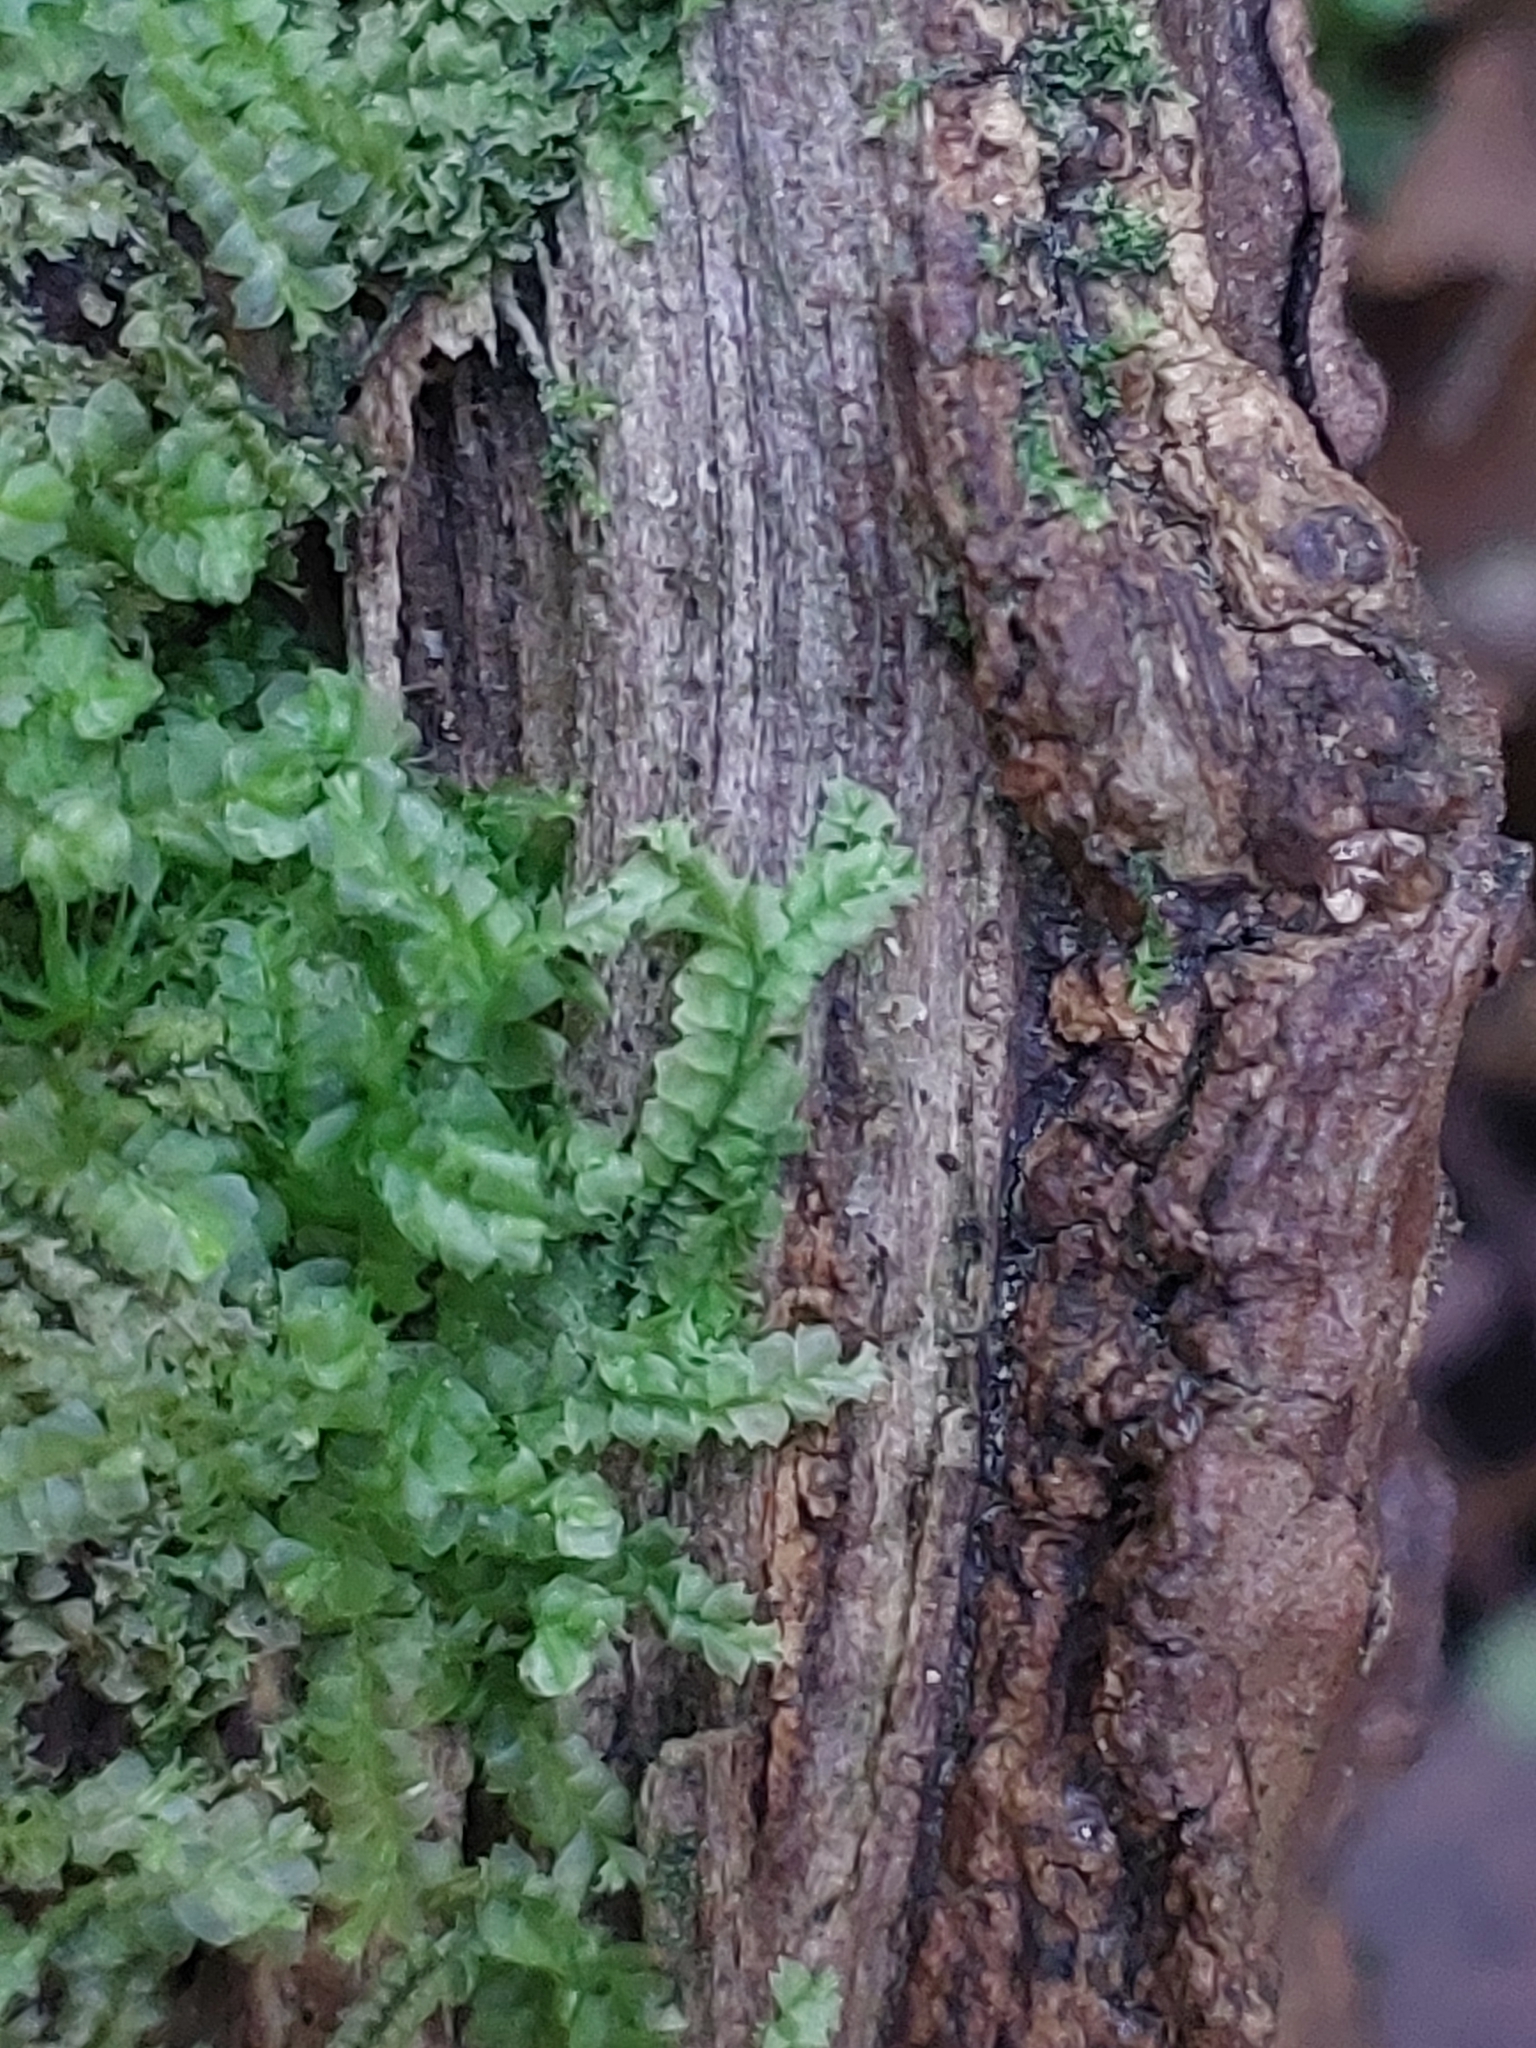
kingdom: Plantae
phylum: Marchantiophyta
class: Jungermanniopsida
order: Jungermanniales
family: Lophocoleaceae
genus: Lophocolea
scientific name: Lophocolea heterophylla
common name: Variable-leaved crestwort
